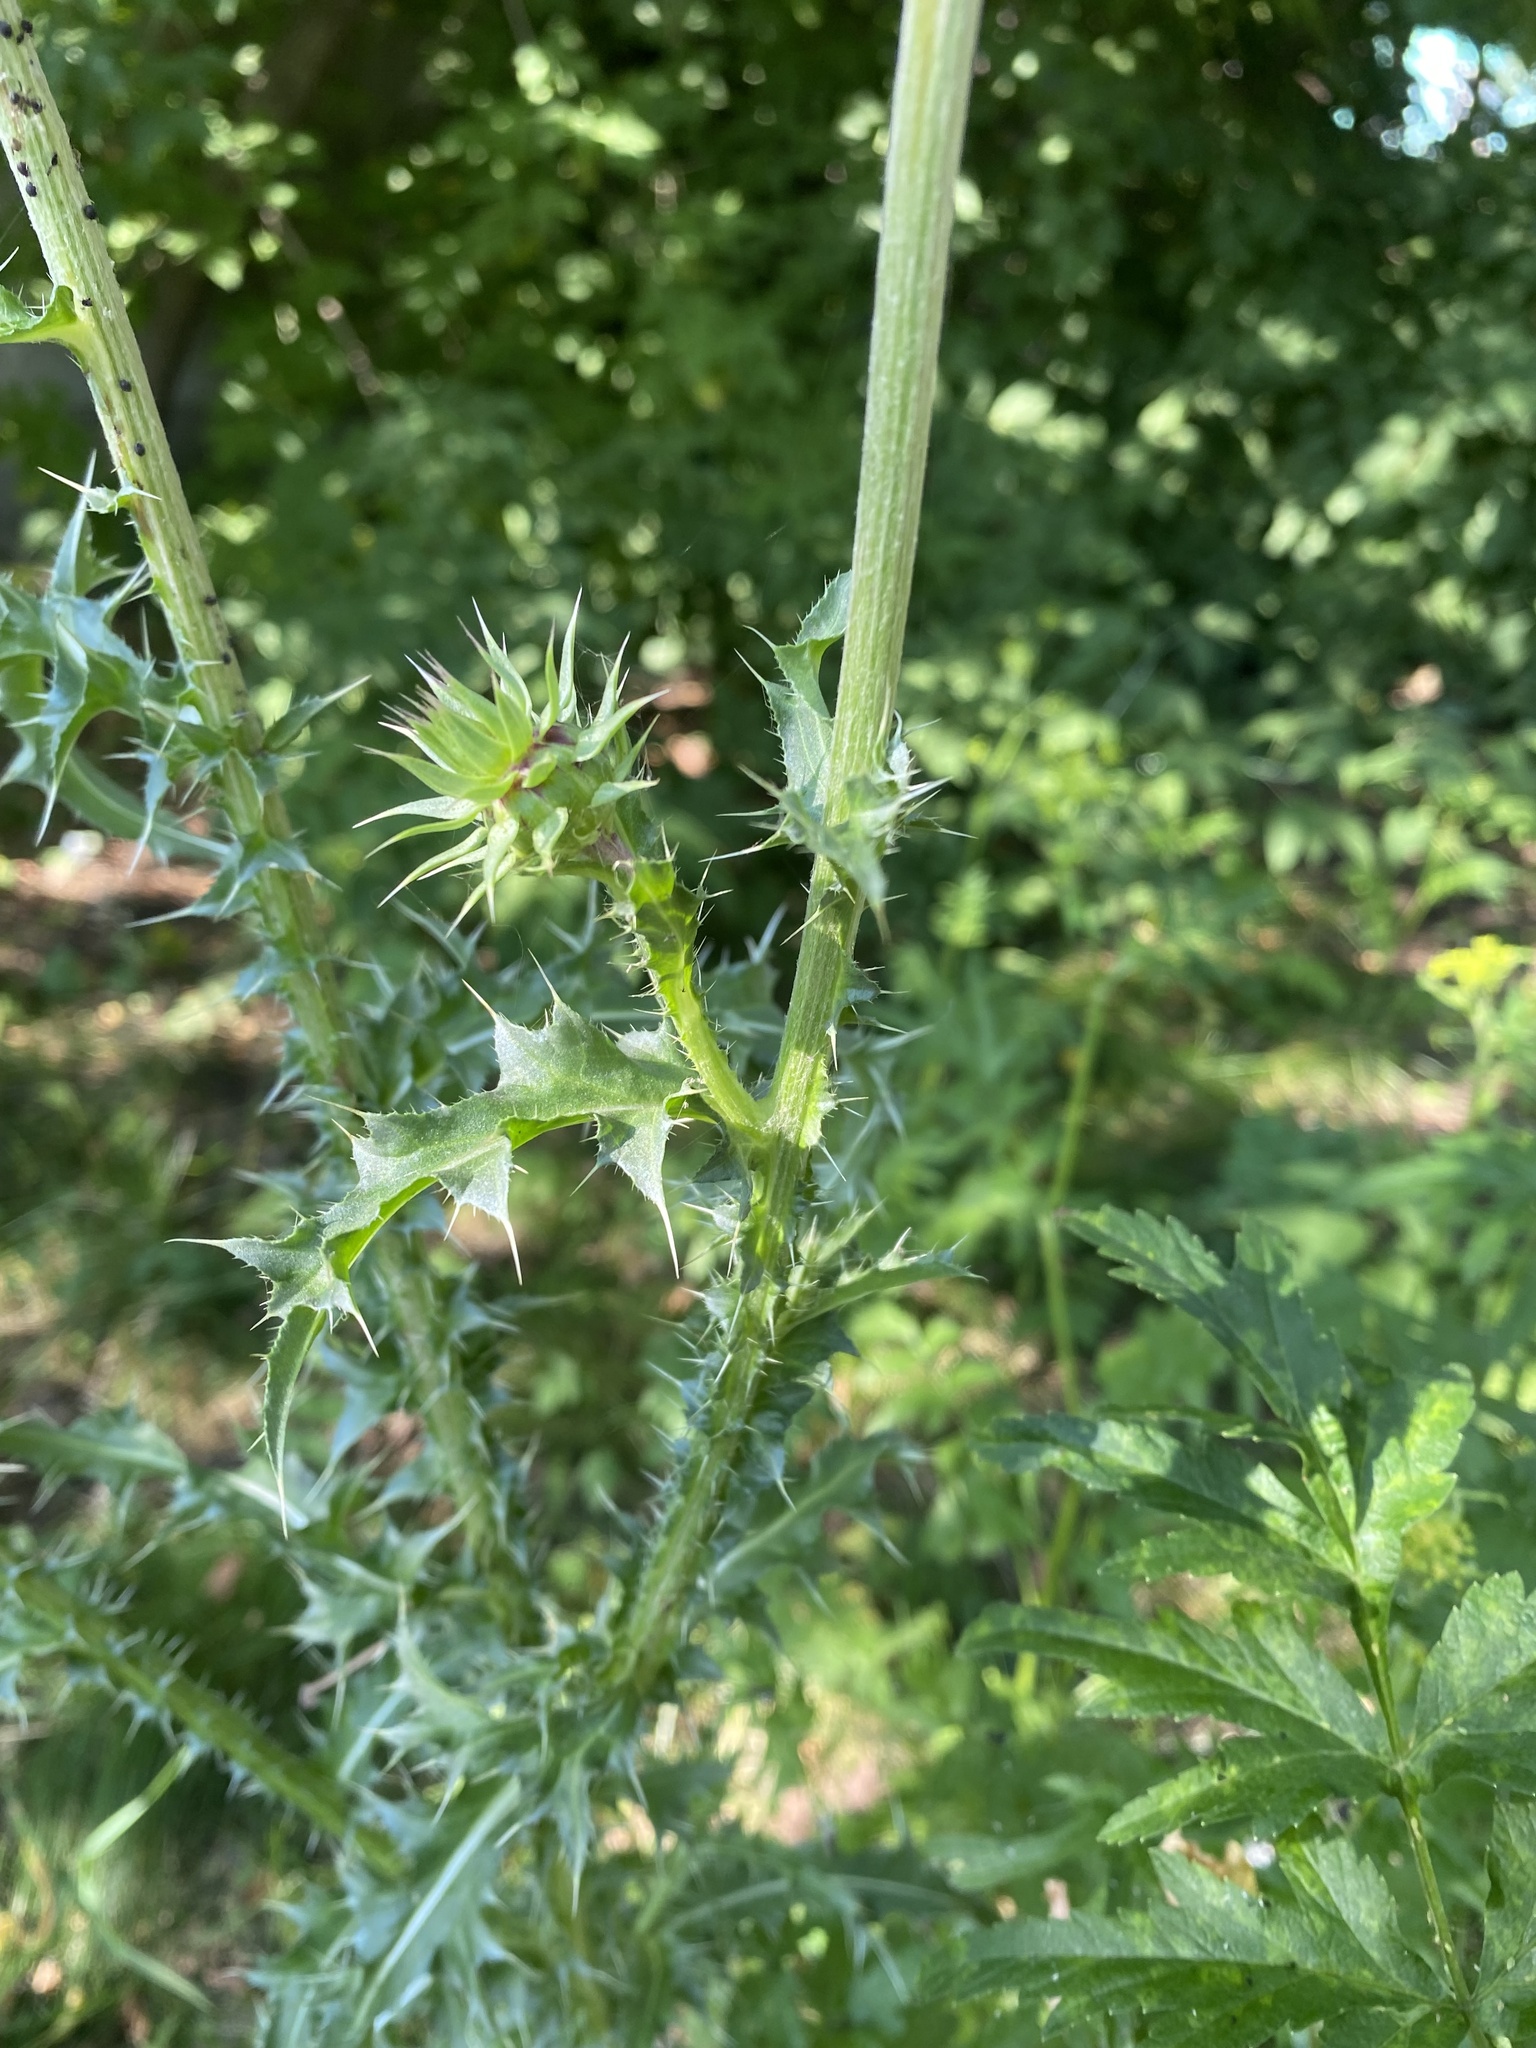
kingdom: Plantae
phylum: Tracheophyta
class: Magnoliopsida
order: Asterales
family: Asteraceae
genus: Carduus
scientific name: Carduus nutans
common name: Musk thistle
